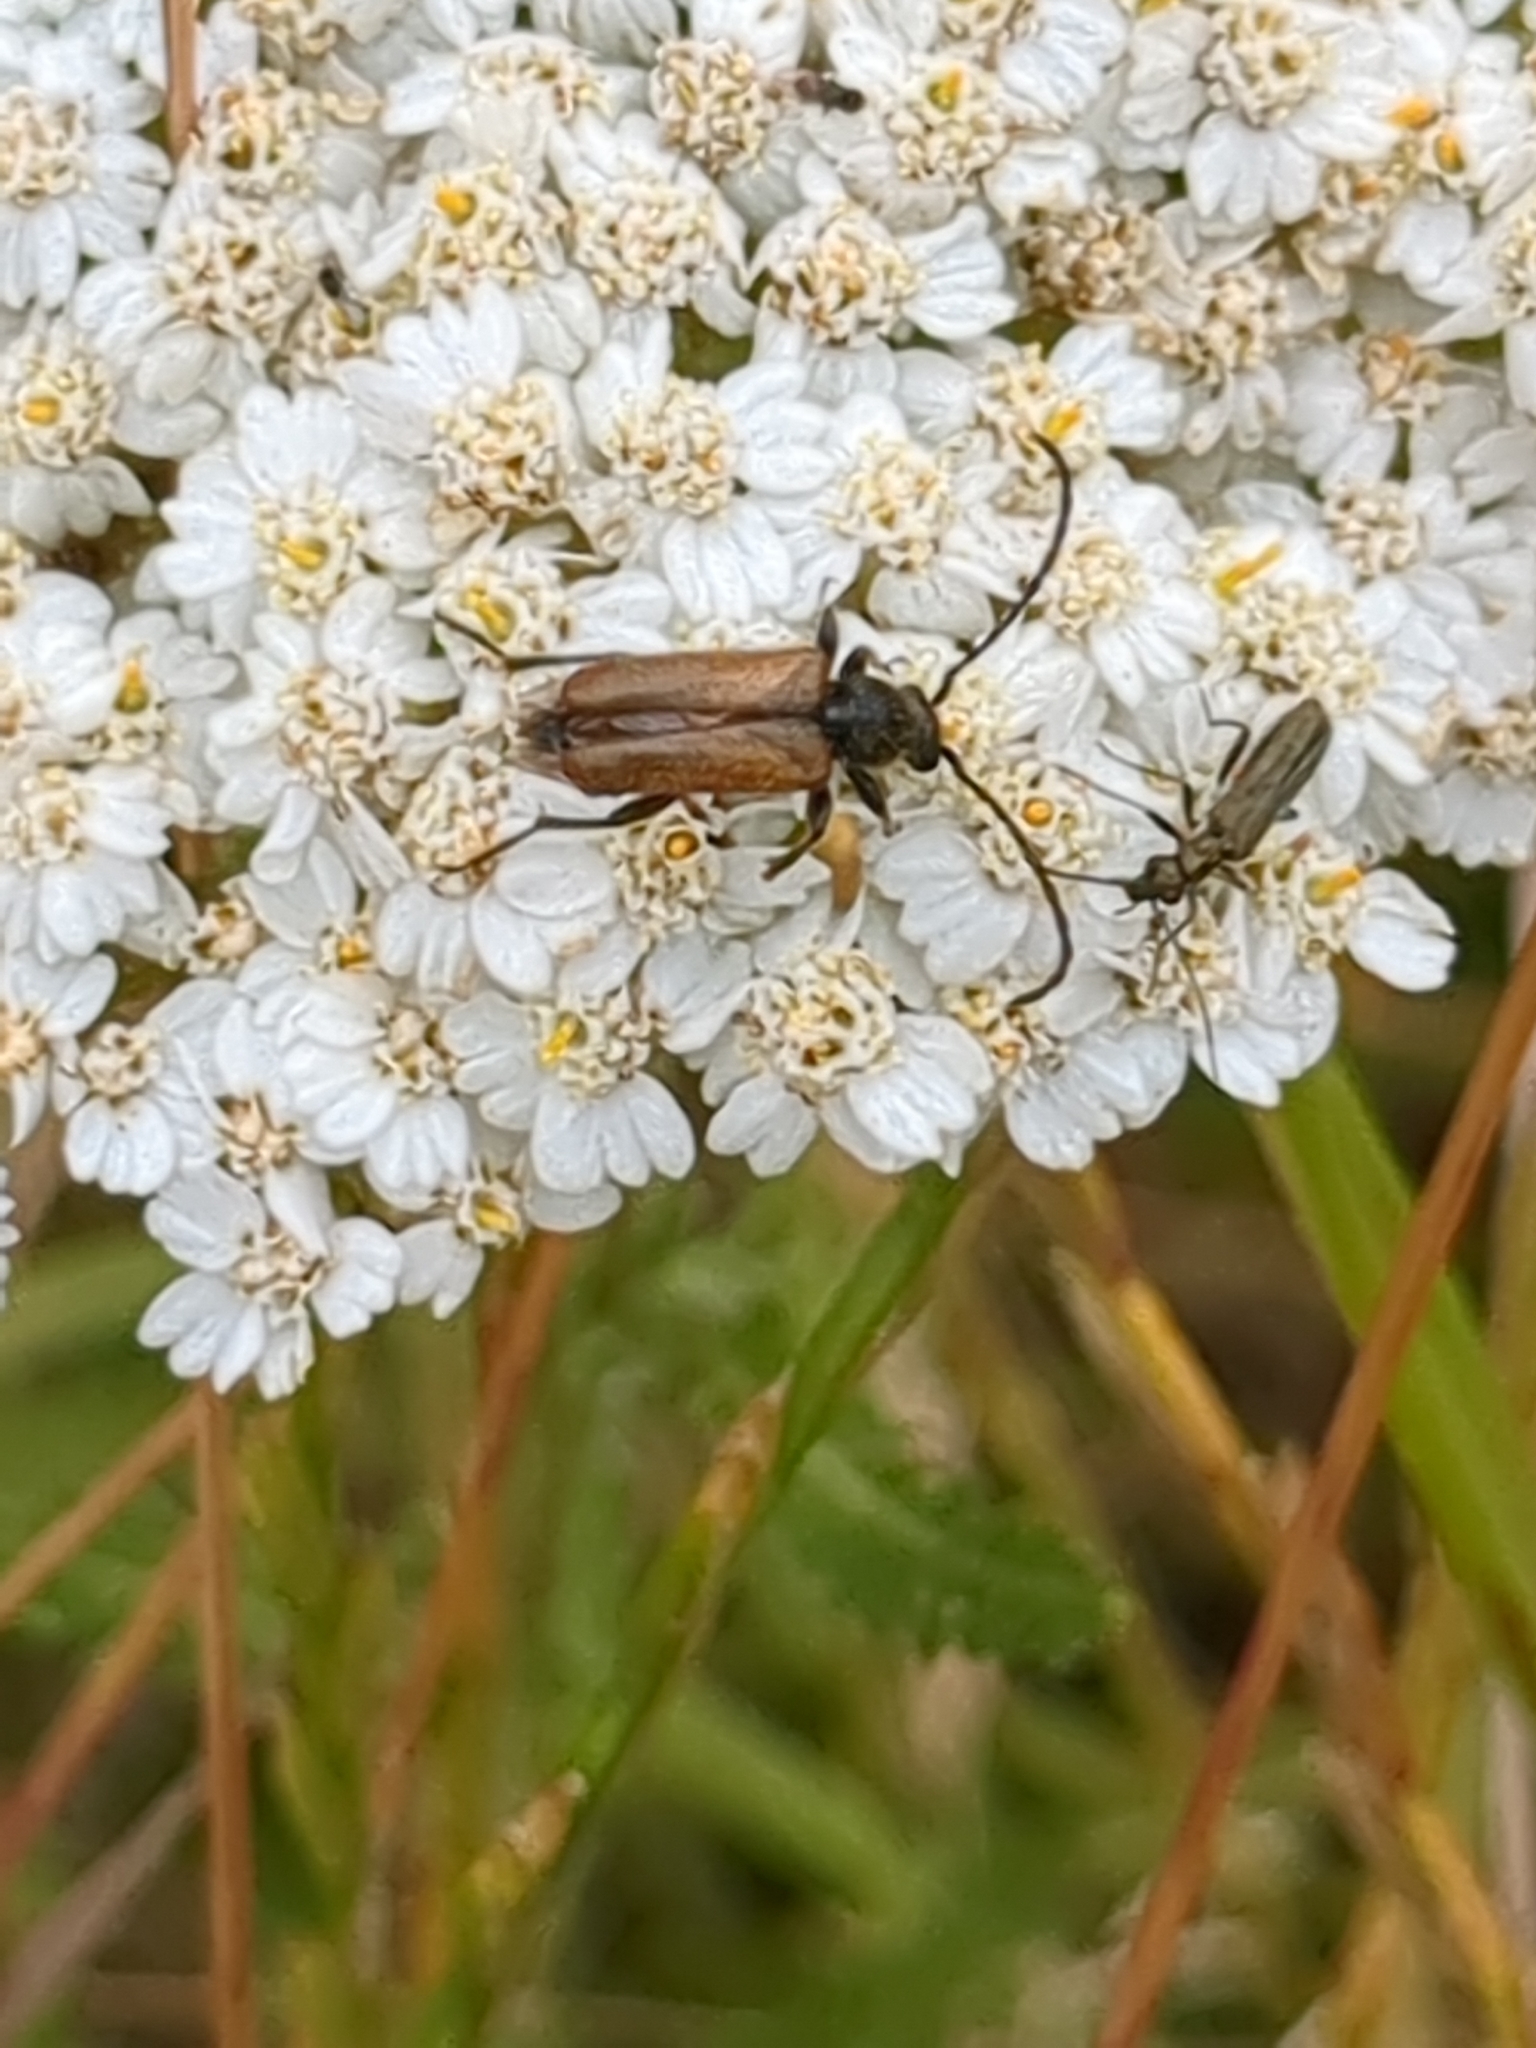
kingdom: Animalia
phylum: Arthropoda
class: Insecta
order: Coleoptera
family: Cerambycidae
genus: Pseudovadonia
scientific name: Pseudovadonia livida
